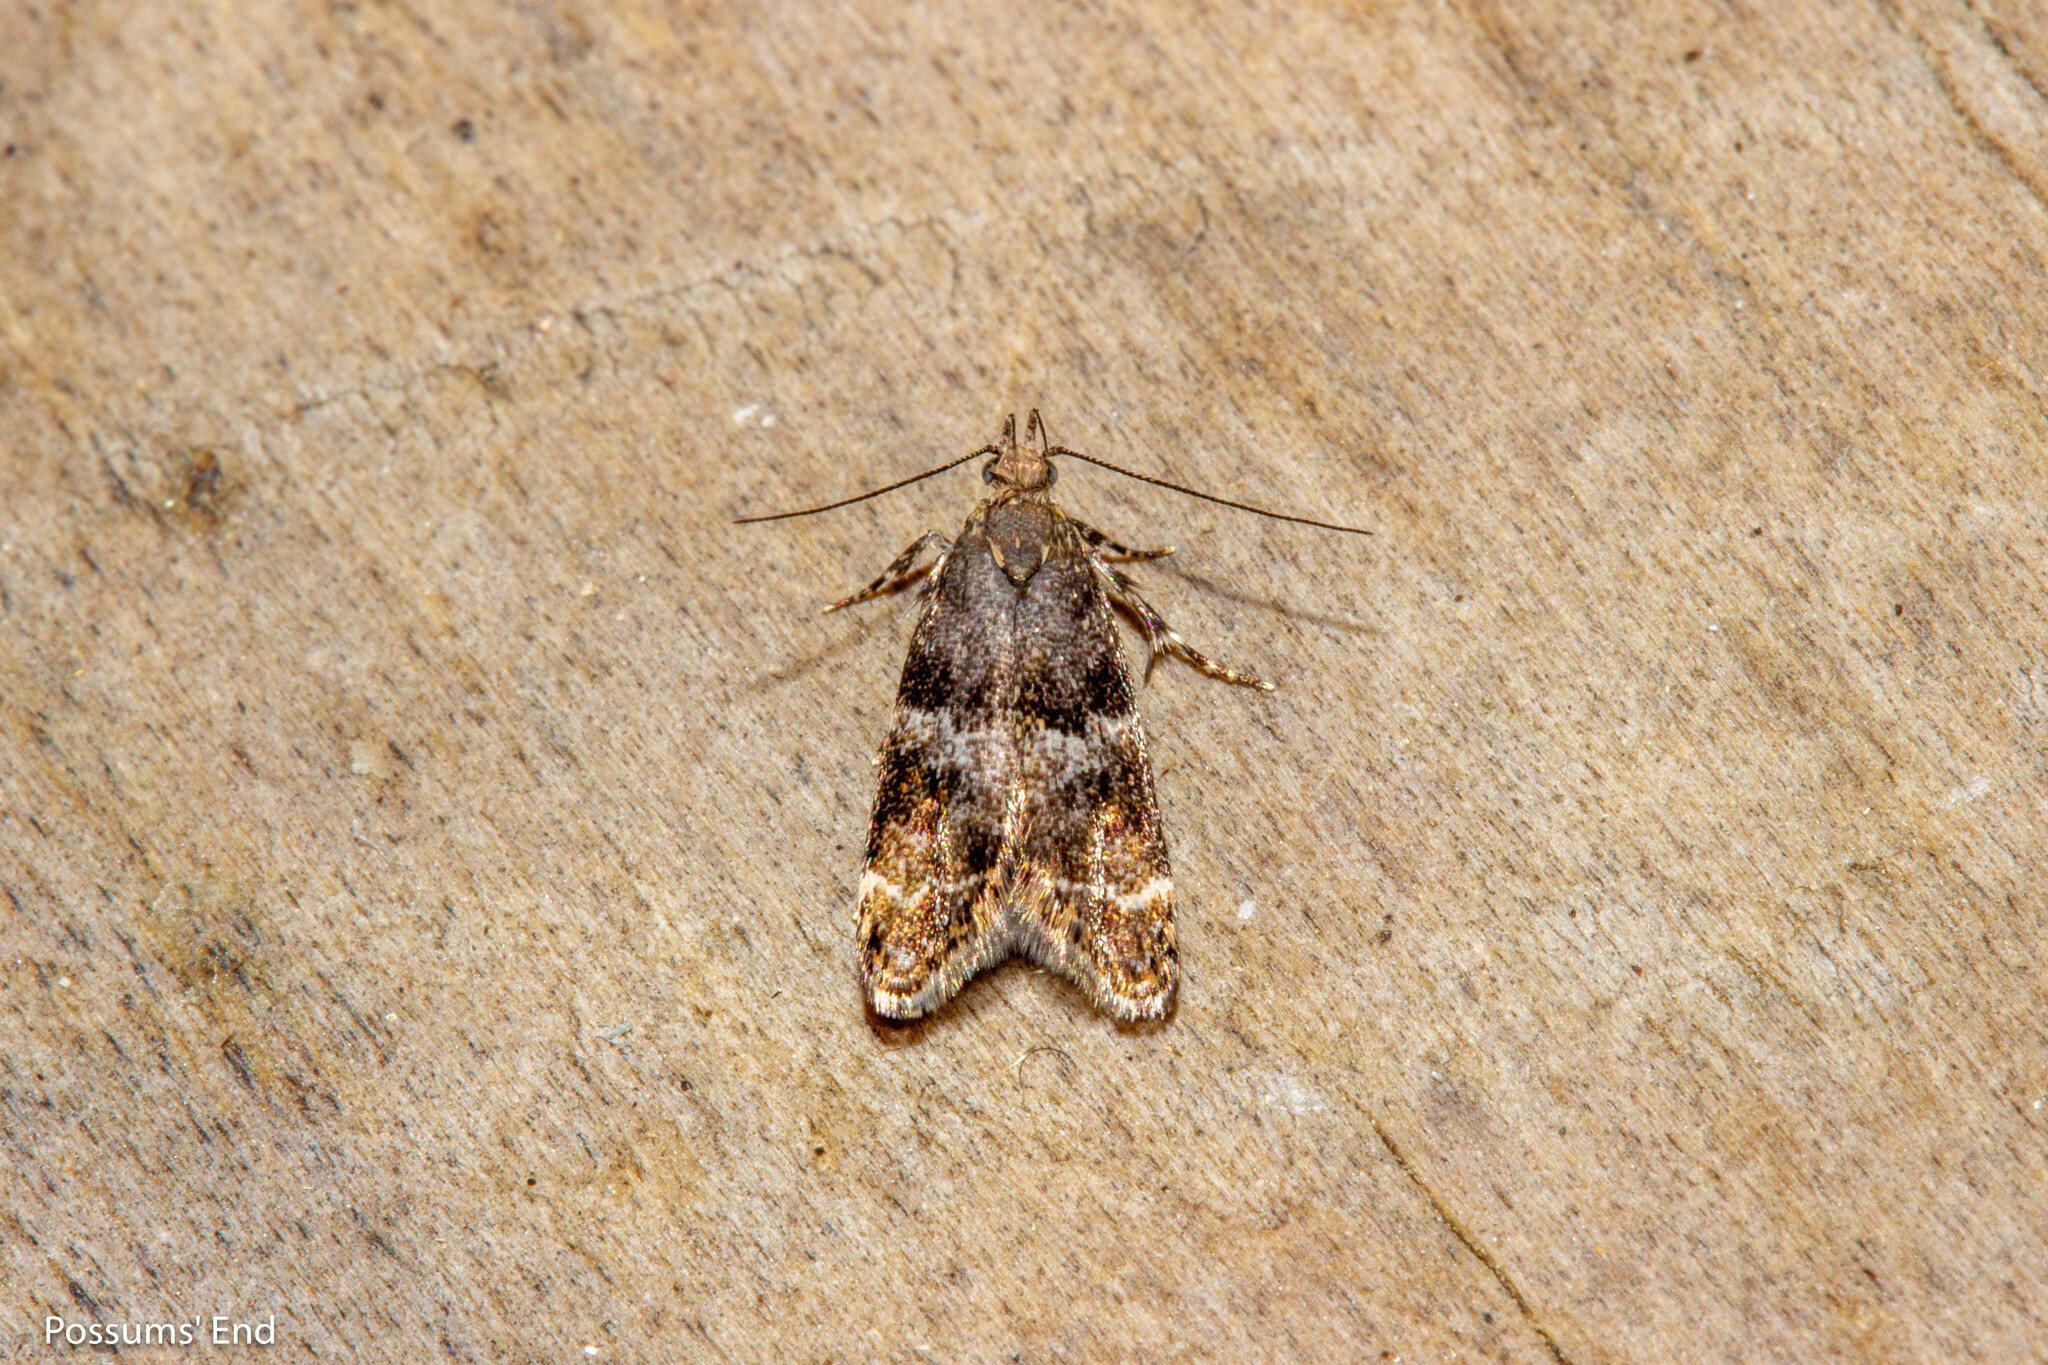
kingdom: Animalia
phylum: Arthropoda
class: Insecta
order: Lepidoptera
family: Oecophoridae
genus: Gymnobathra
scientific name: Gymnobathra omphalota
